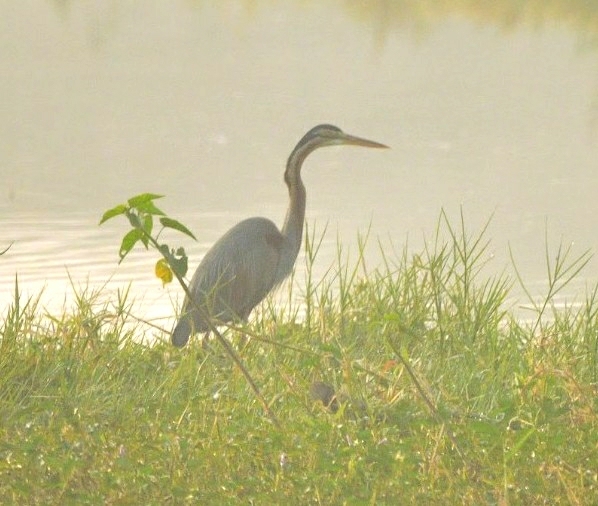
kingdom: Animalia
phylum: Chordata
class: Aves
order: Pelecaniformes
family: Ardeidae
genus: Ardea
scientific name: Ardea purpurea
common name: Purple heron
